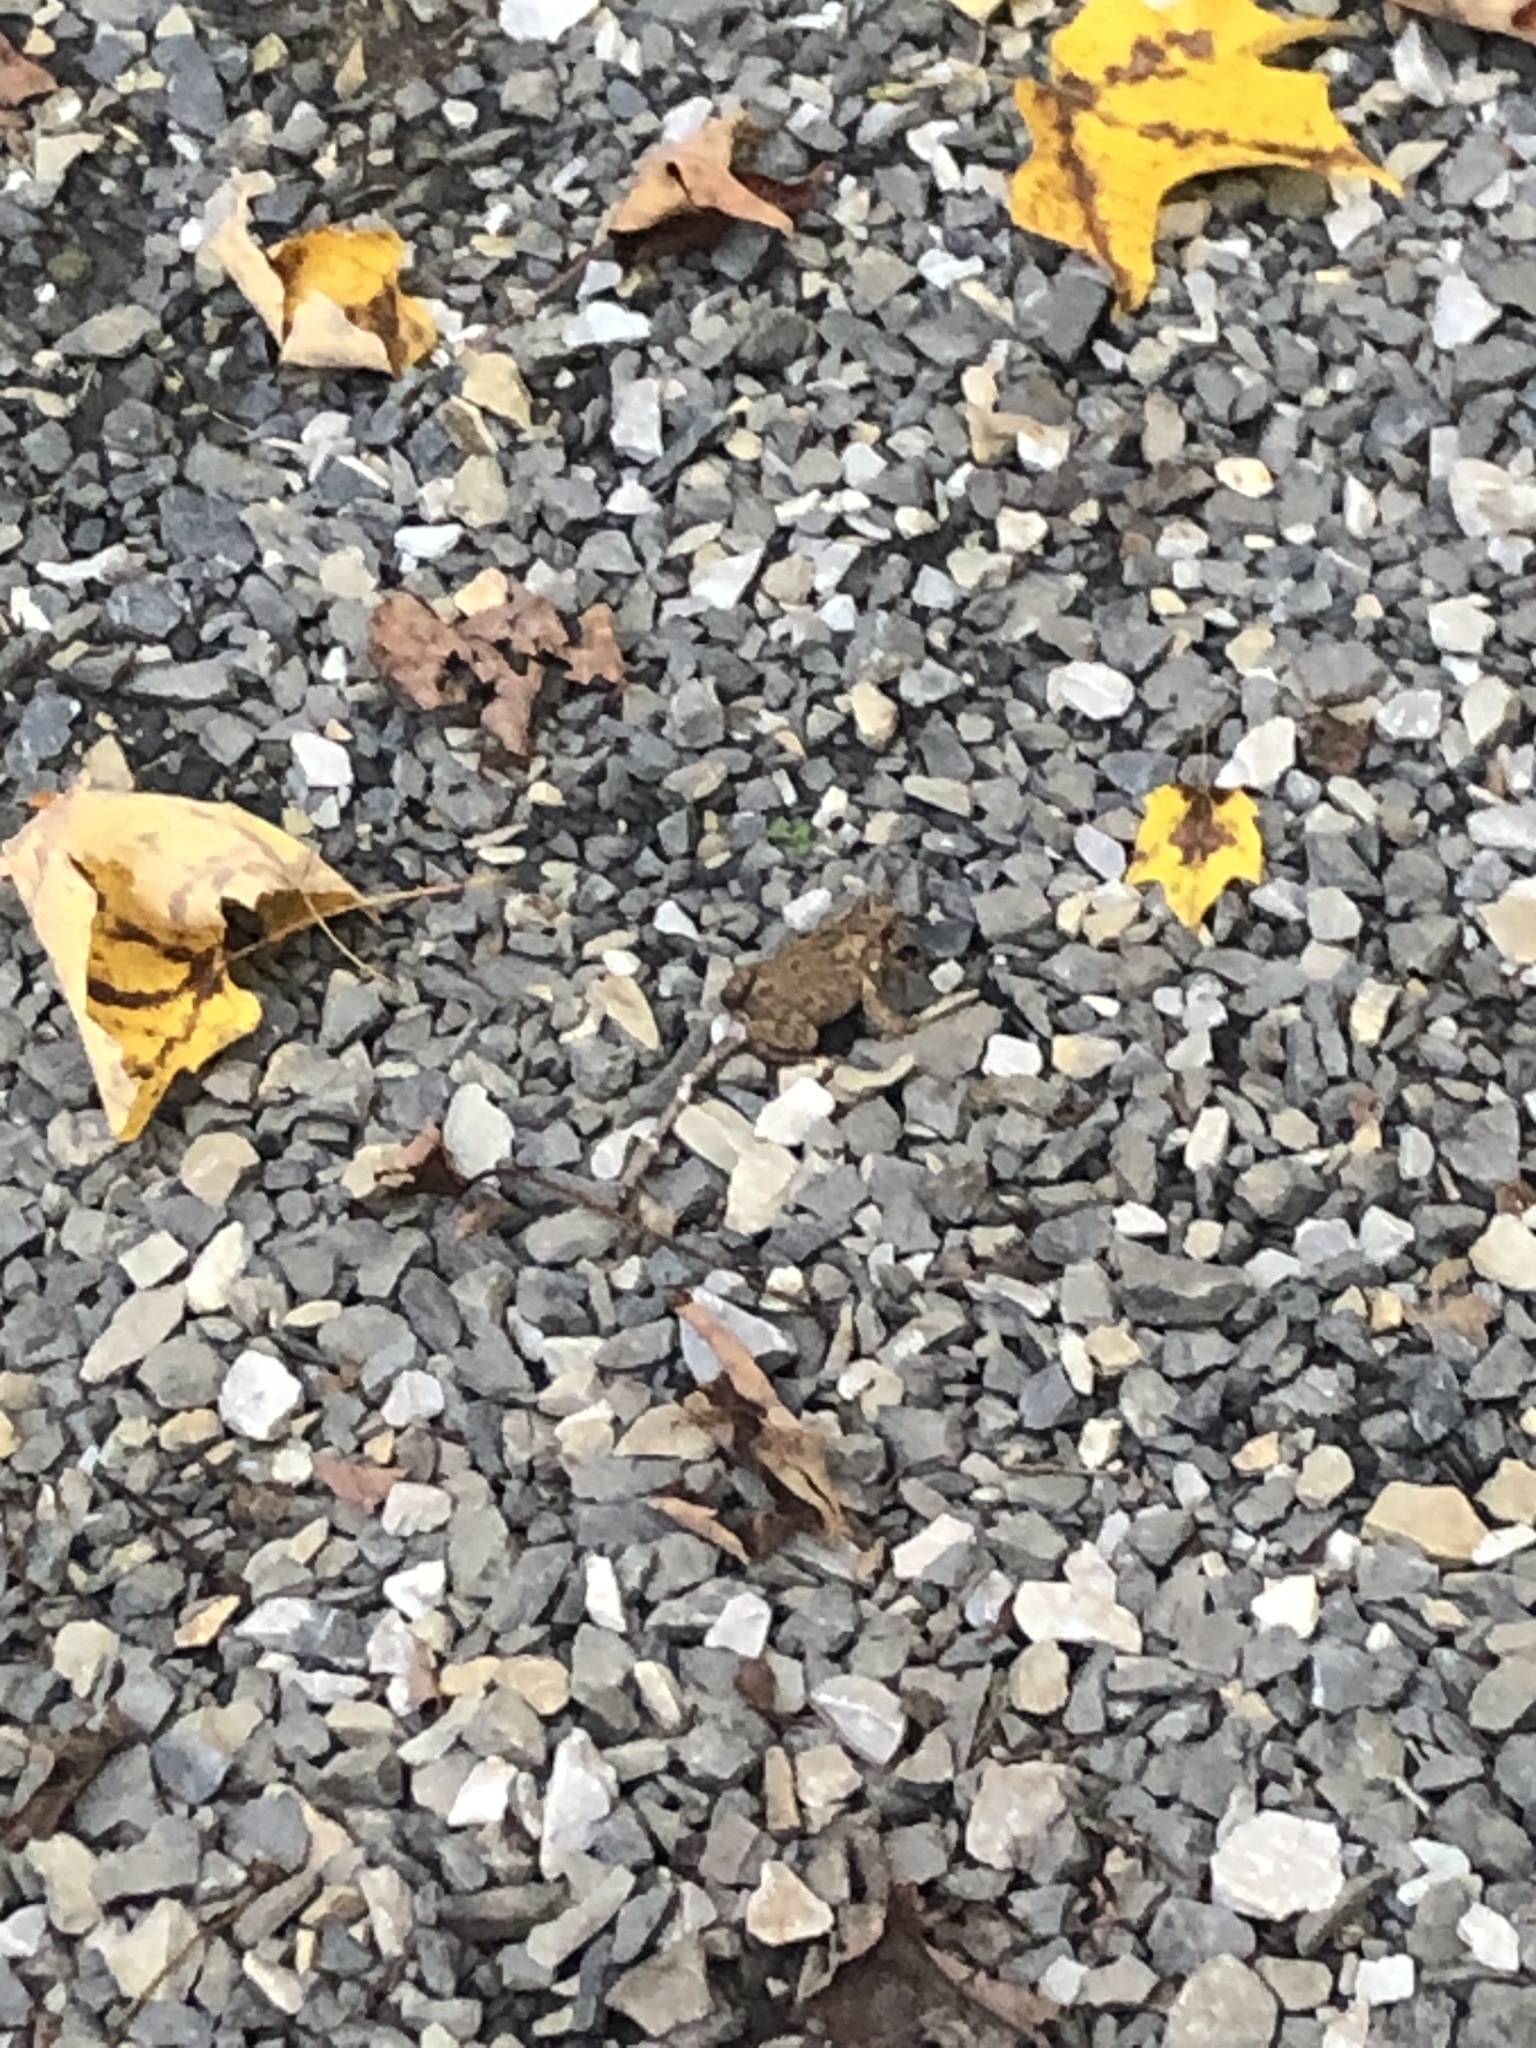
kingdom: Animalia
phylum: Chordata
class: Amphibia
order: Anura
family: Bufonidae
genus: Anaxyrus
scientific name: Anaxyrus americanus
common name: American toad
